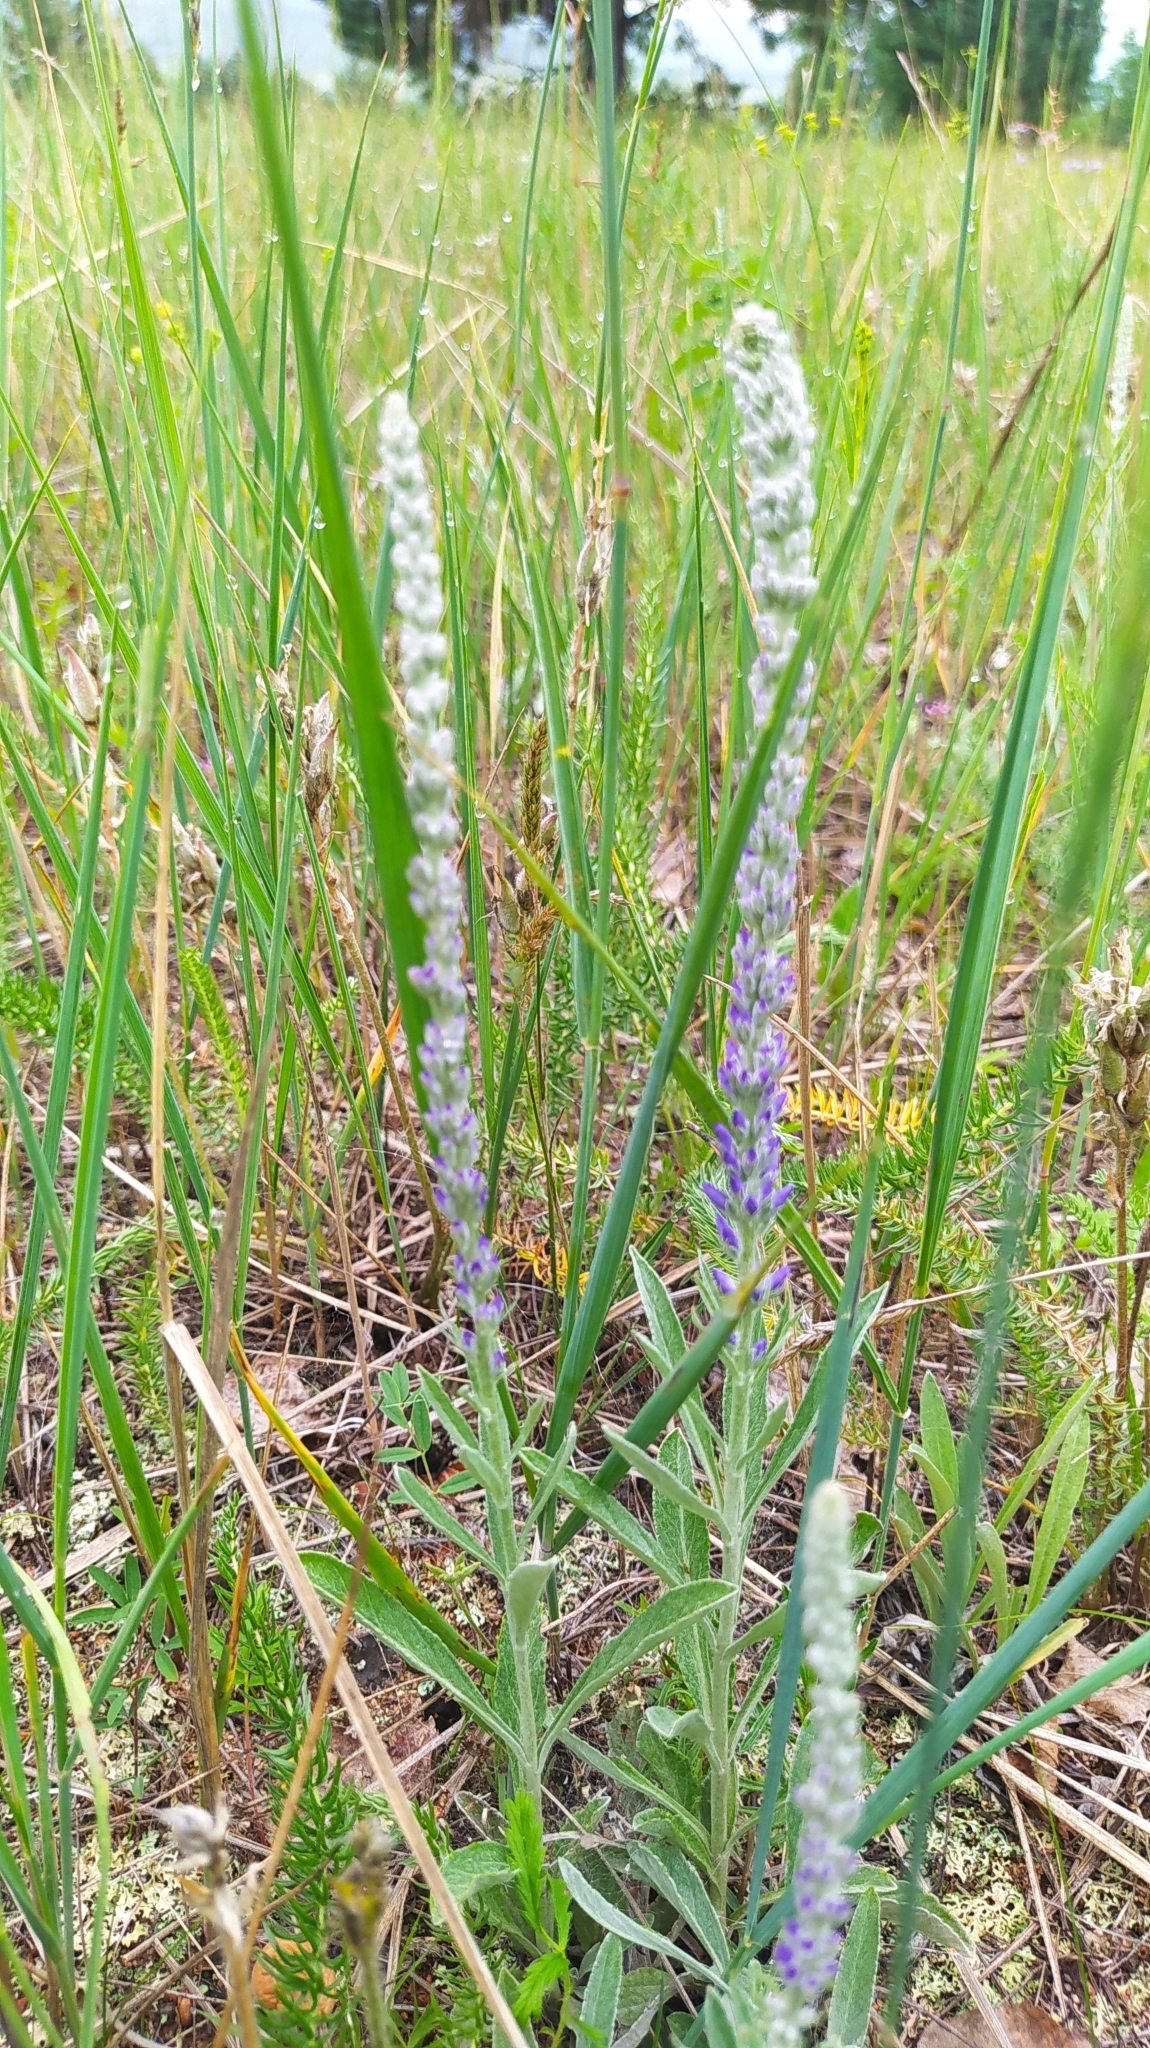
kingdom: Plantae
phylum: Tracheophyta
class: Magnoliopsida
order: Lamiales
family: Plantaginaceae
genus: Veronica
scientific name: Veronica incana
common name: Silver speedwell
